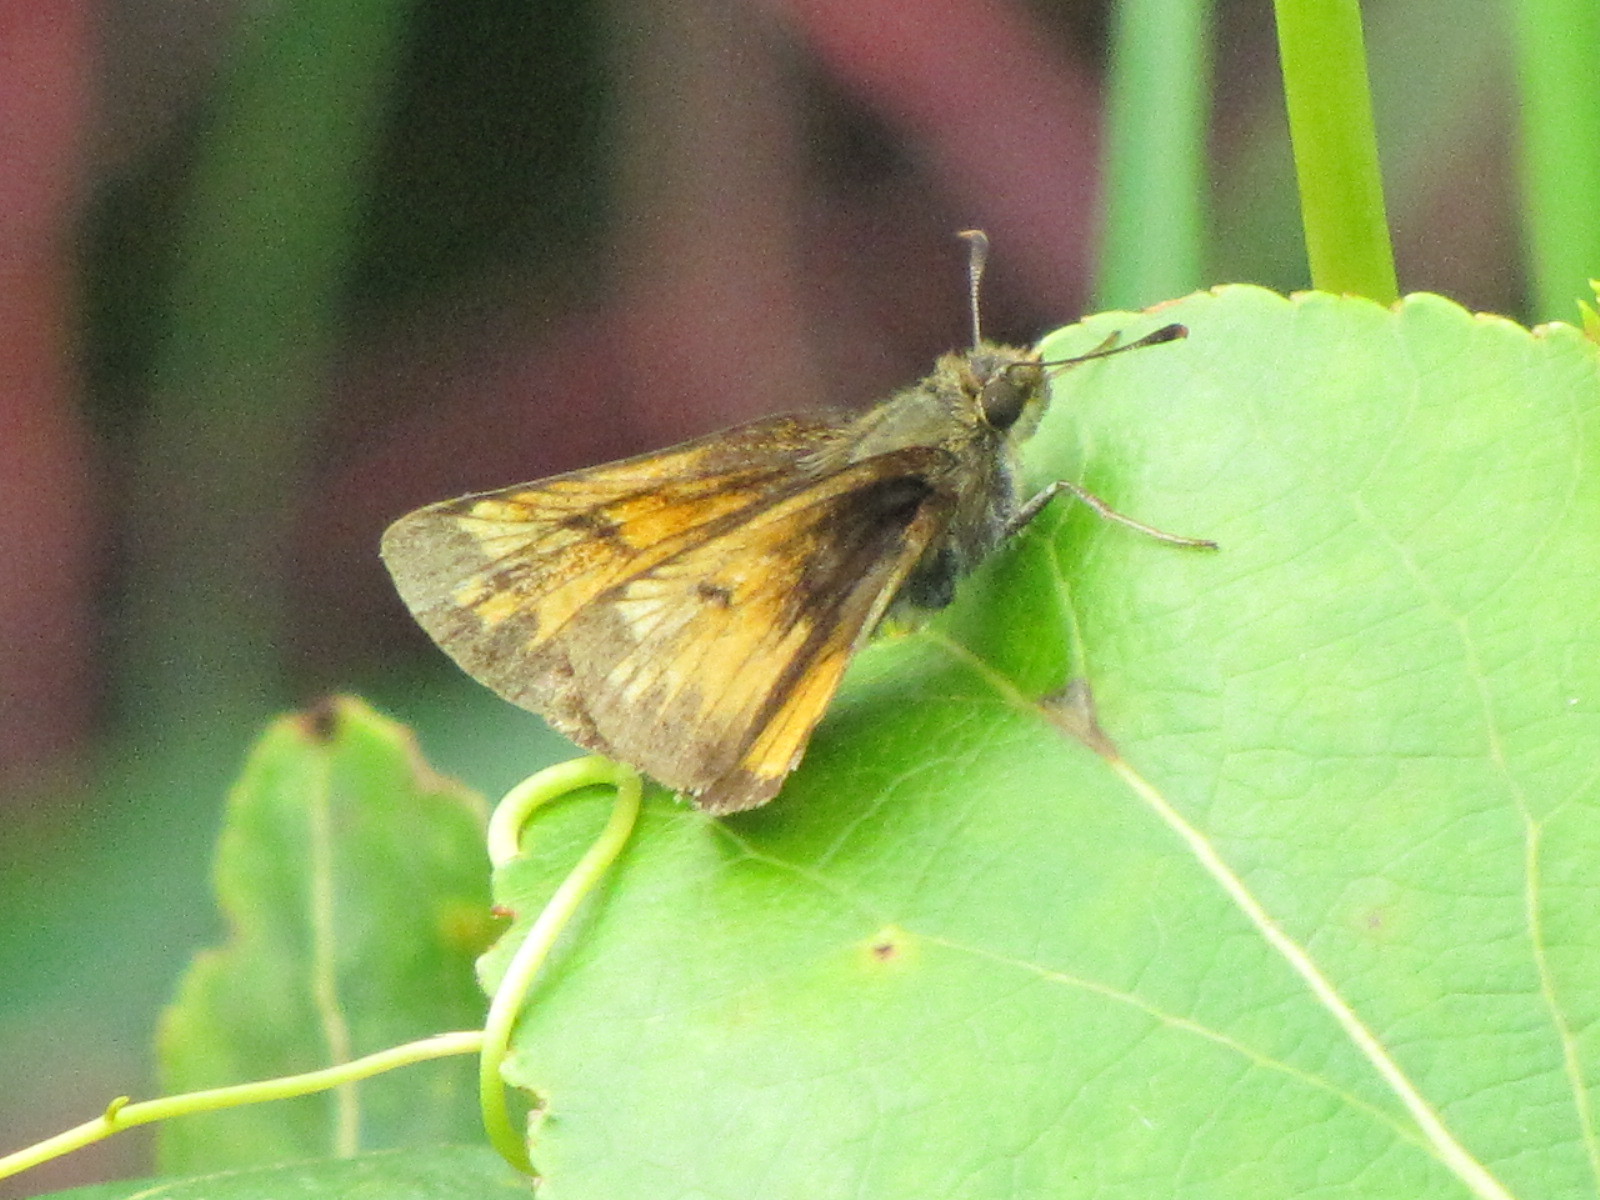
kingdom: Animalia
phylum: Arthropoda
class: Insecta
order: Lepidoptera
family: Hesperiidae
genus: Lon
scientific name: Lon hobomok
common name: Hobomok skipper
